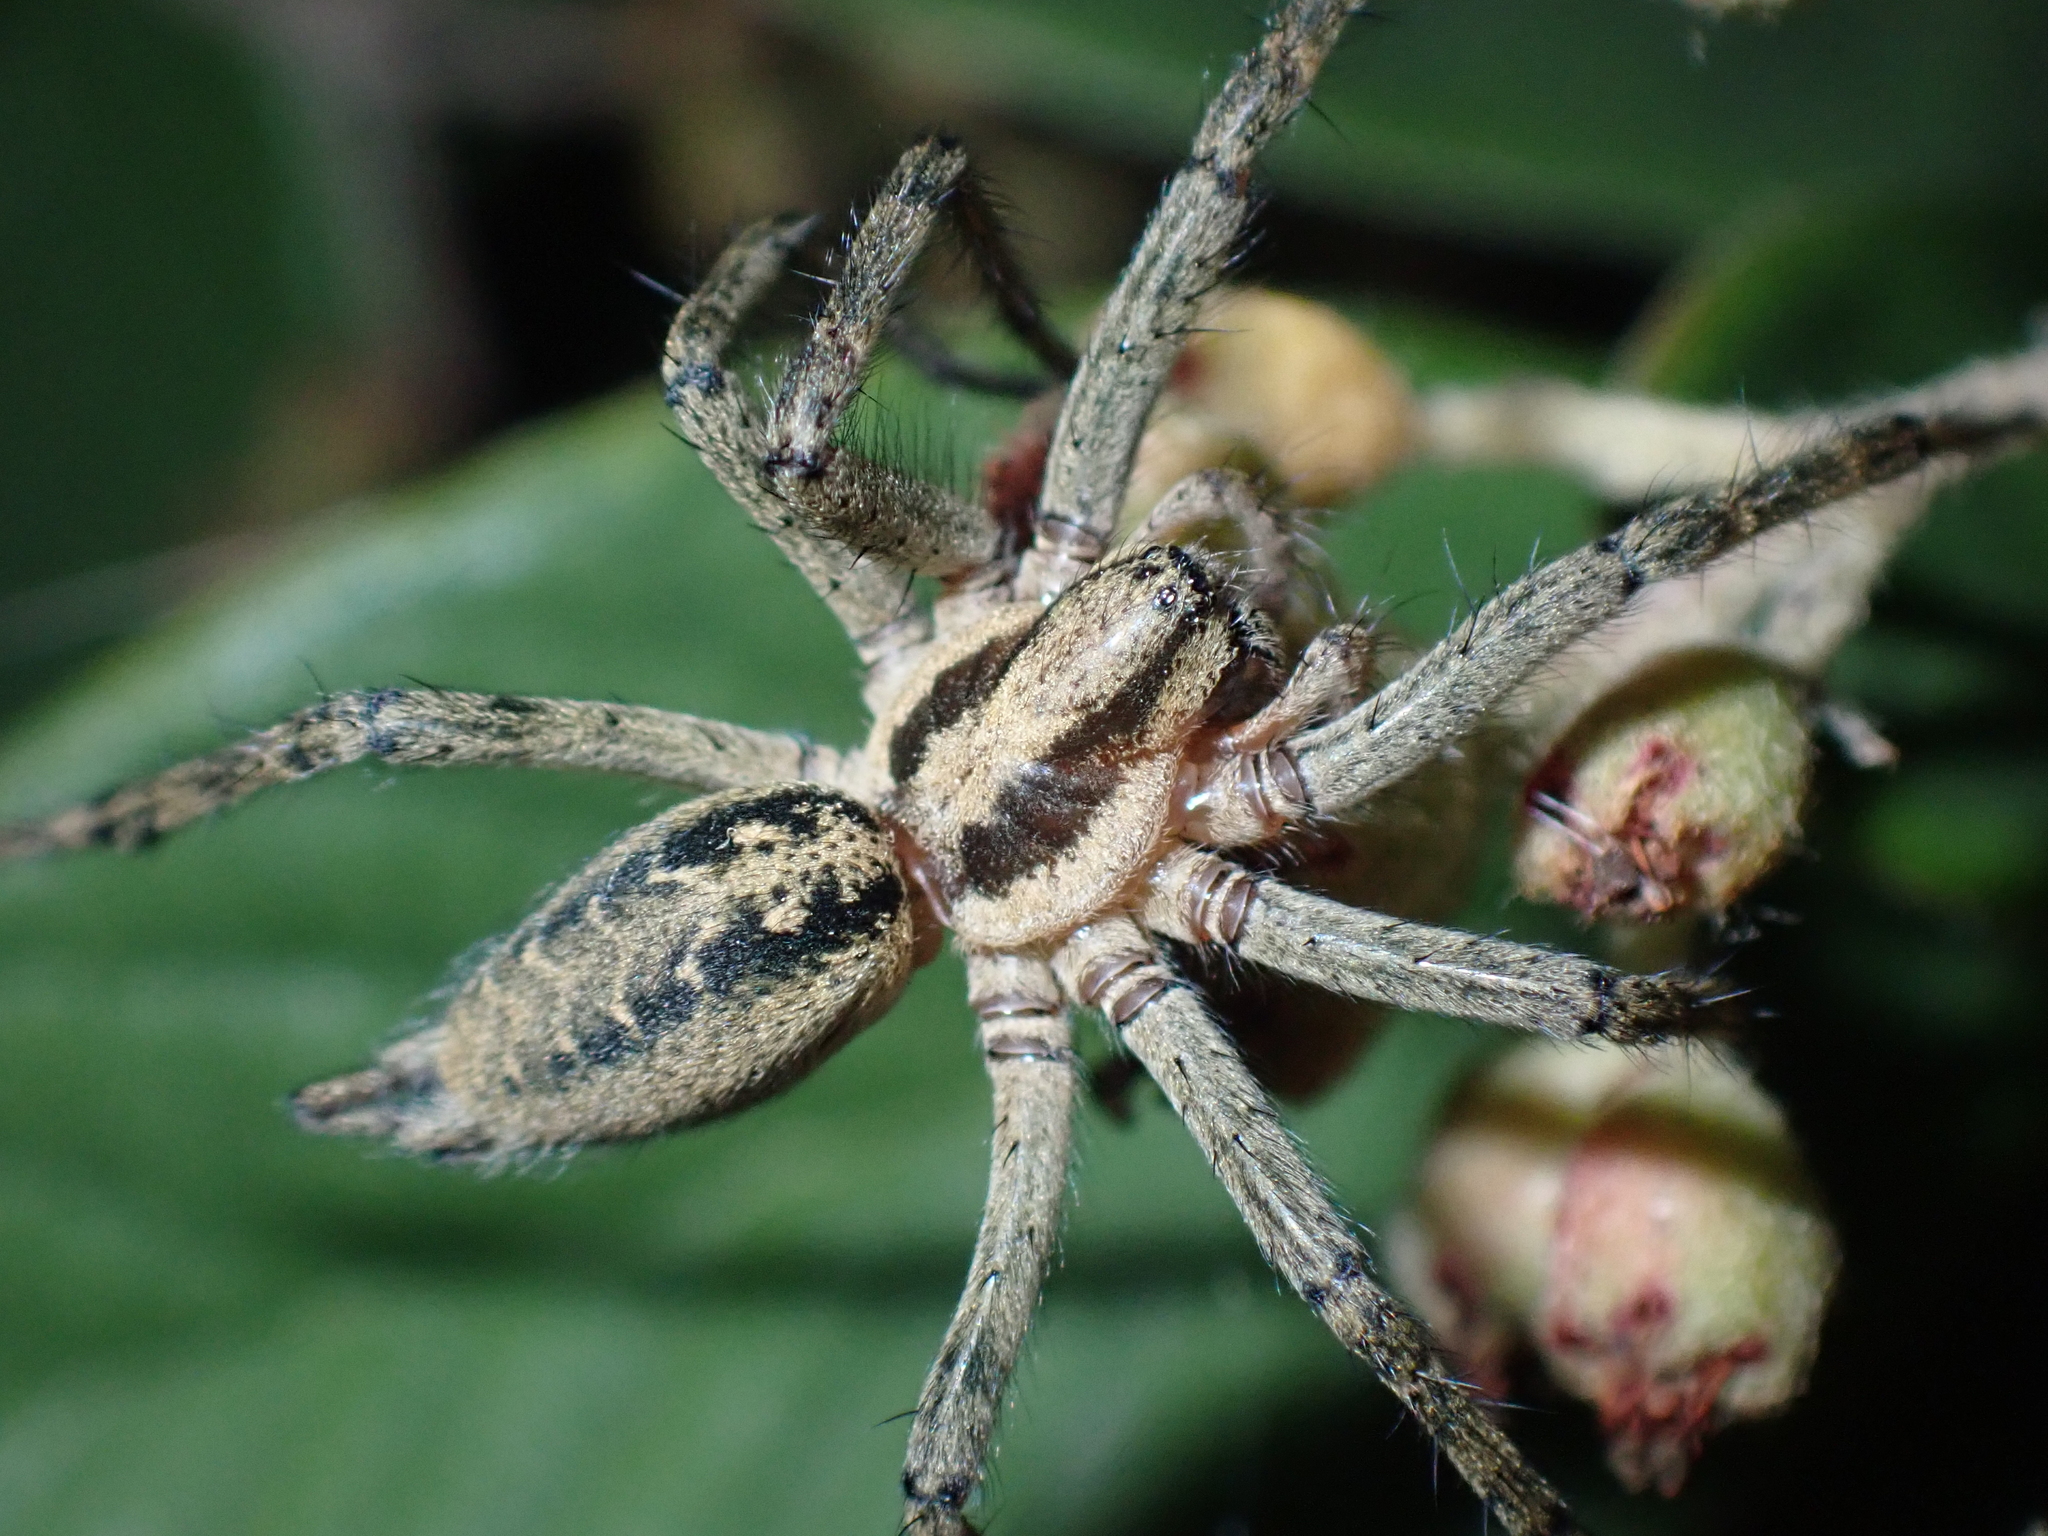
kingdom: Animalia
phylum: Arthropoda
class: Arachnida
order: Araneae
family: Agelenidae
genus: Agelena
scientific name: Agelena labyrinthica
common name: Labyrinth spider
